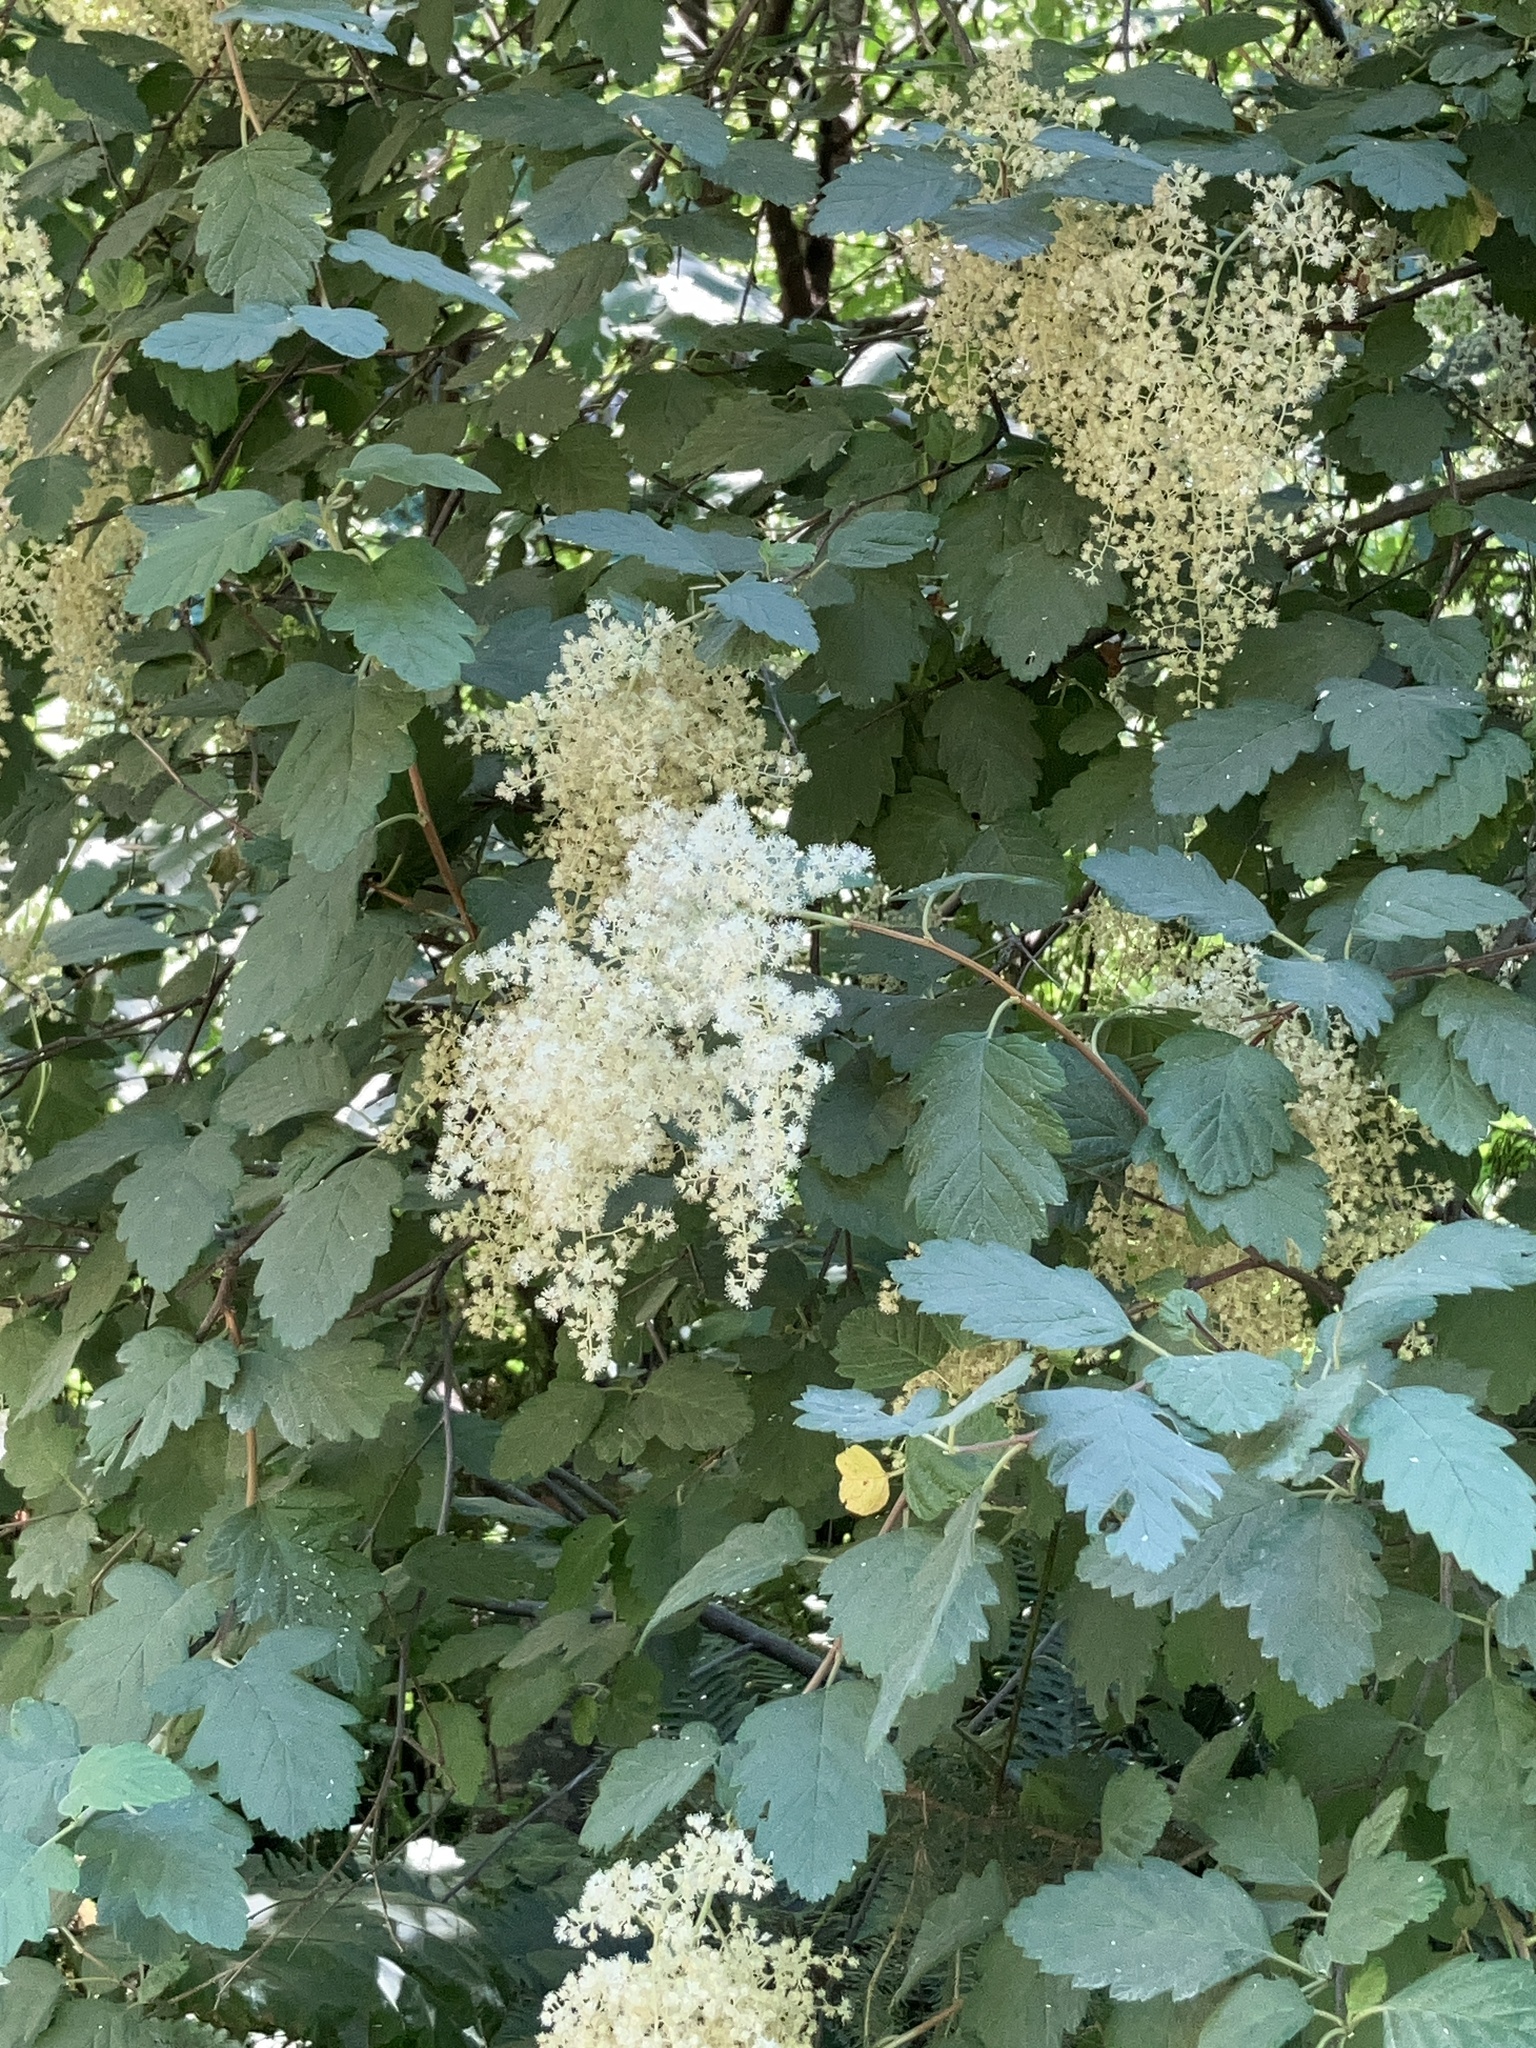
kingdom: Plantae
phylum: Tracheophyta
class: Magnoliopsida
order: Rosales
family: Rosaceae
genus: Holodiscus
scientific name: Holodiscus discolor
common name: Oceanspray
